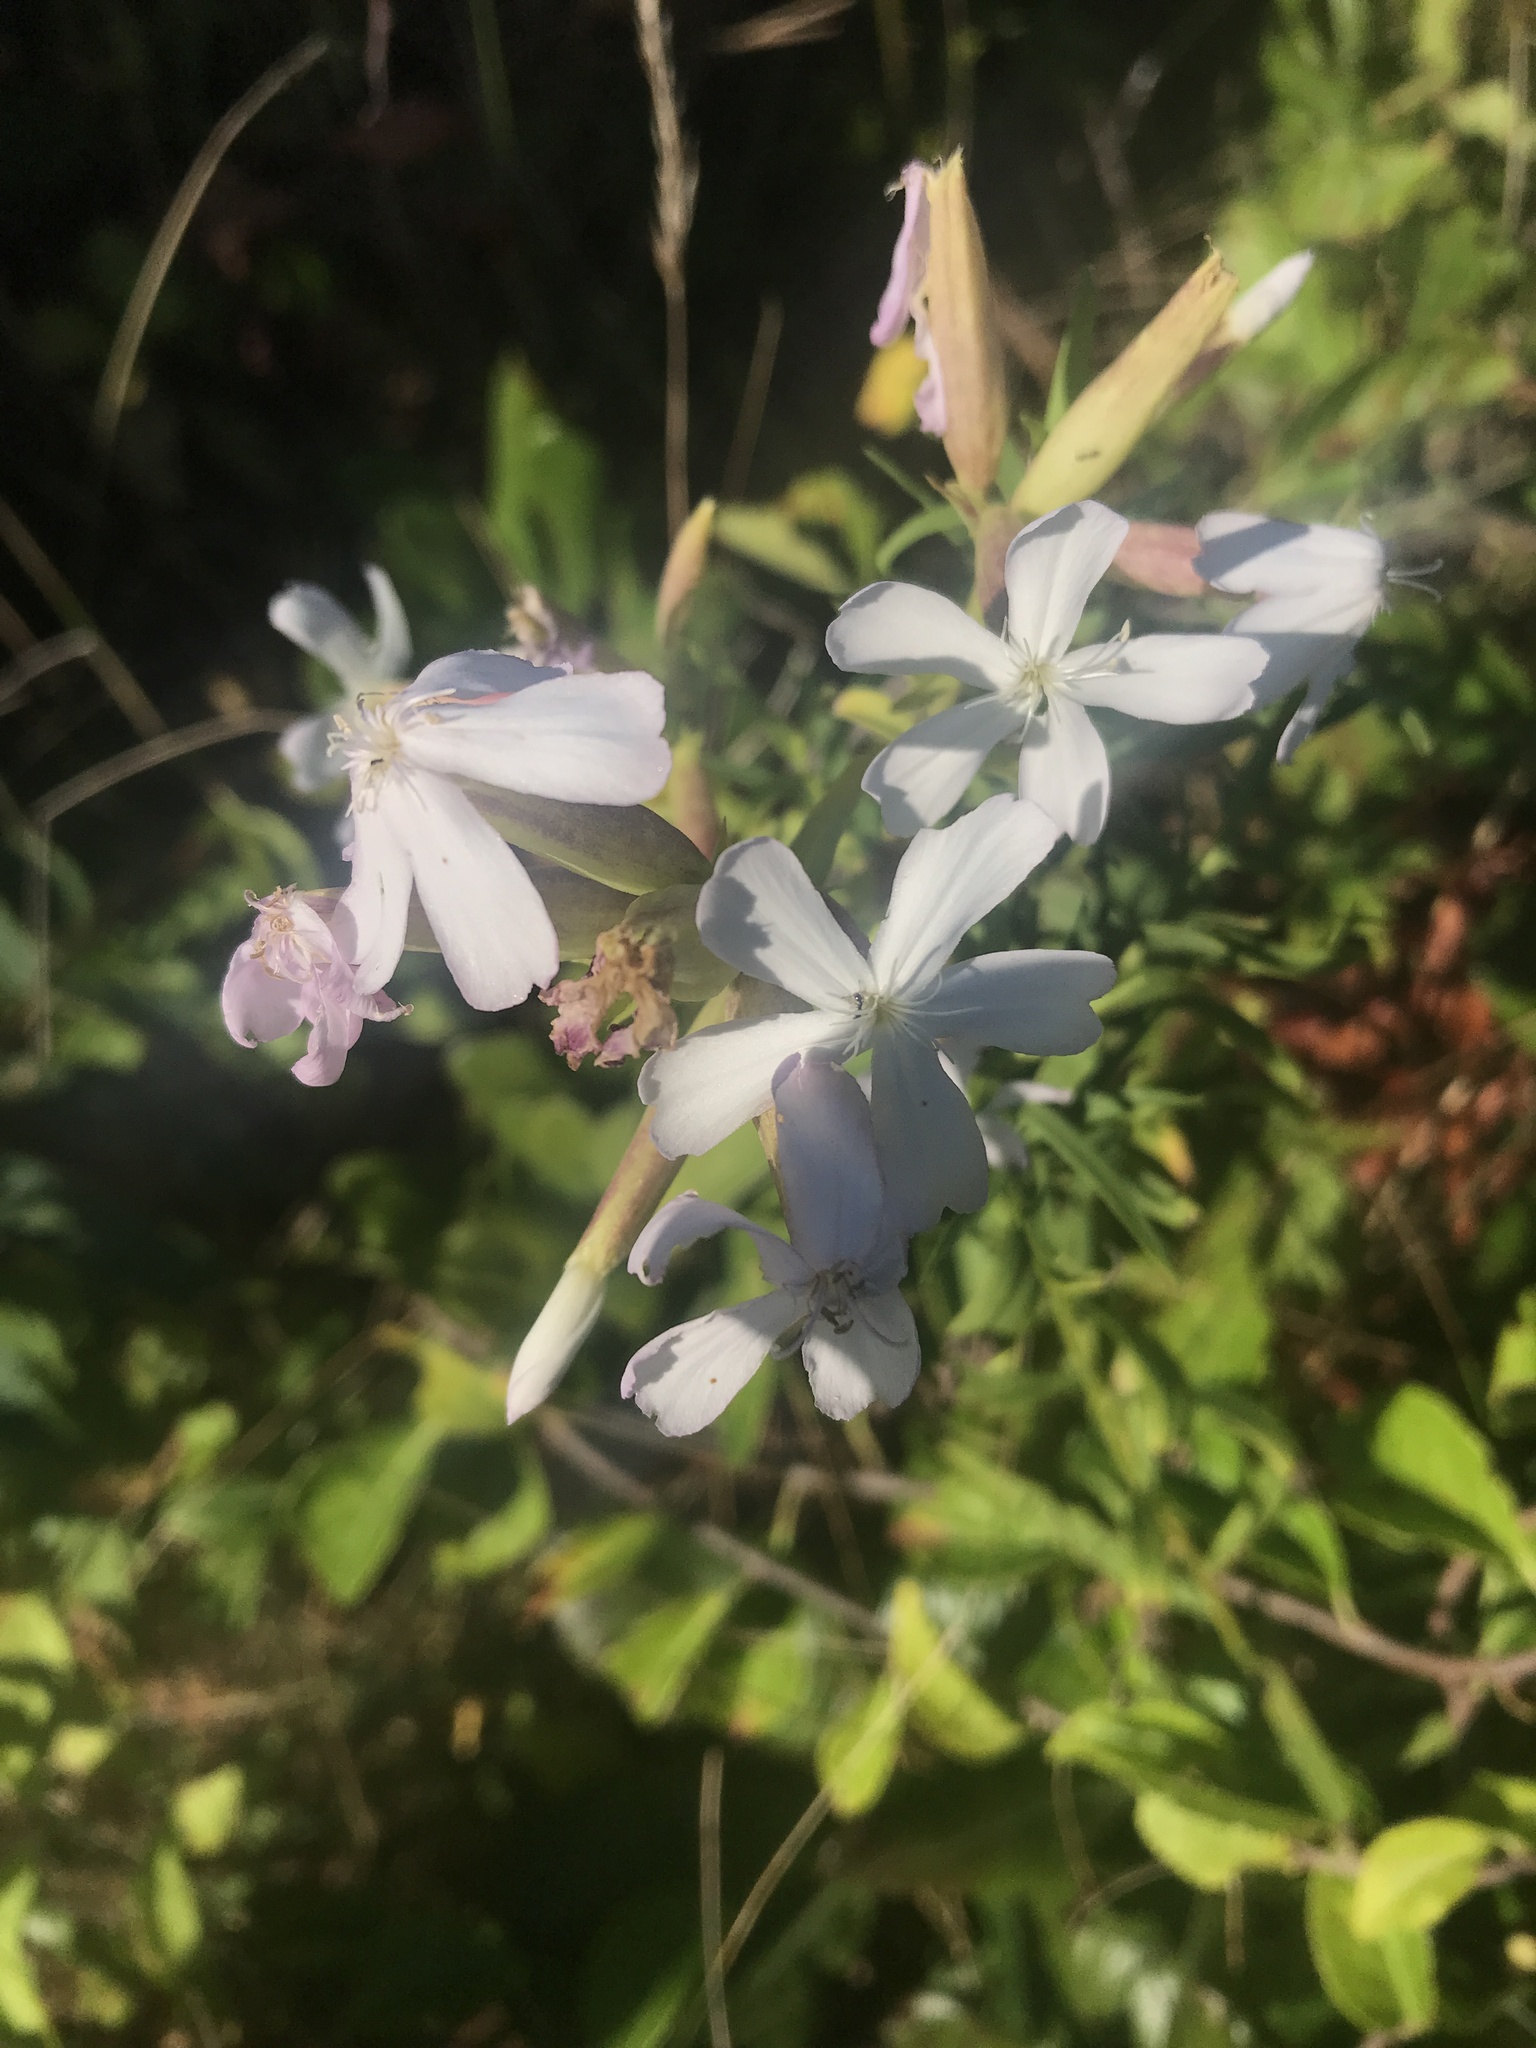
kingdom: Plantae
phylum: Tracheophyta
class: Magnoliopsida
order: Caryophyllales
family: Caryophyllaceae
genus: Saponaria
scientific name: Saponaria officinalis
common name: Soapwort
